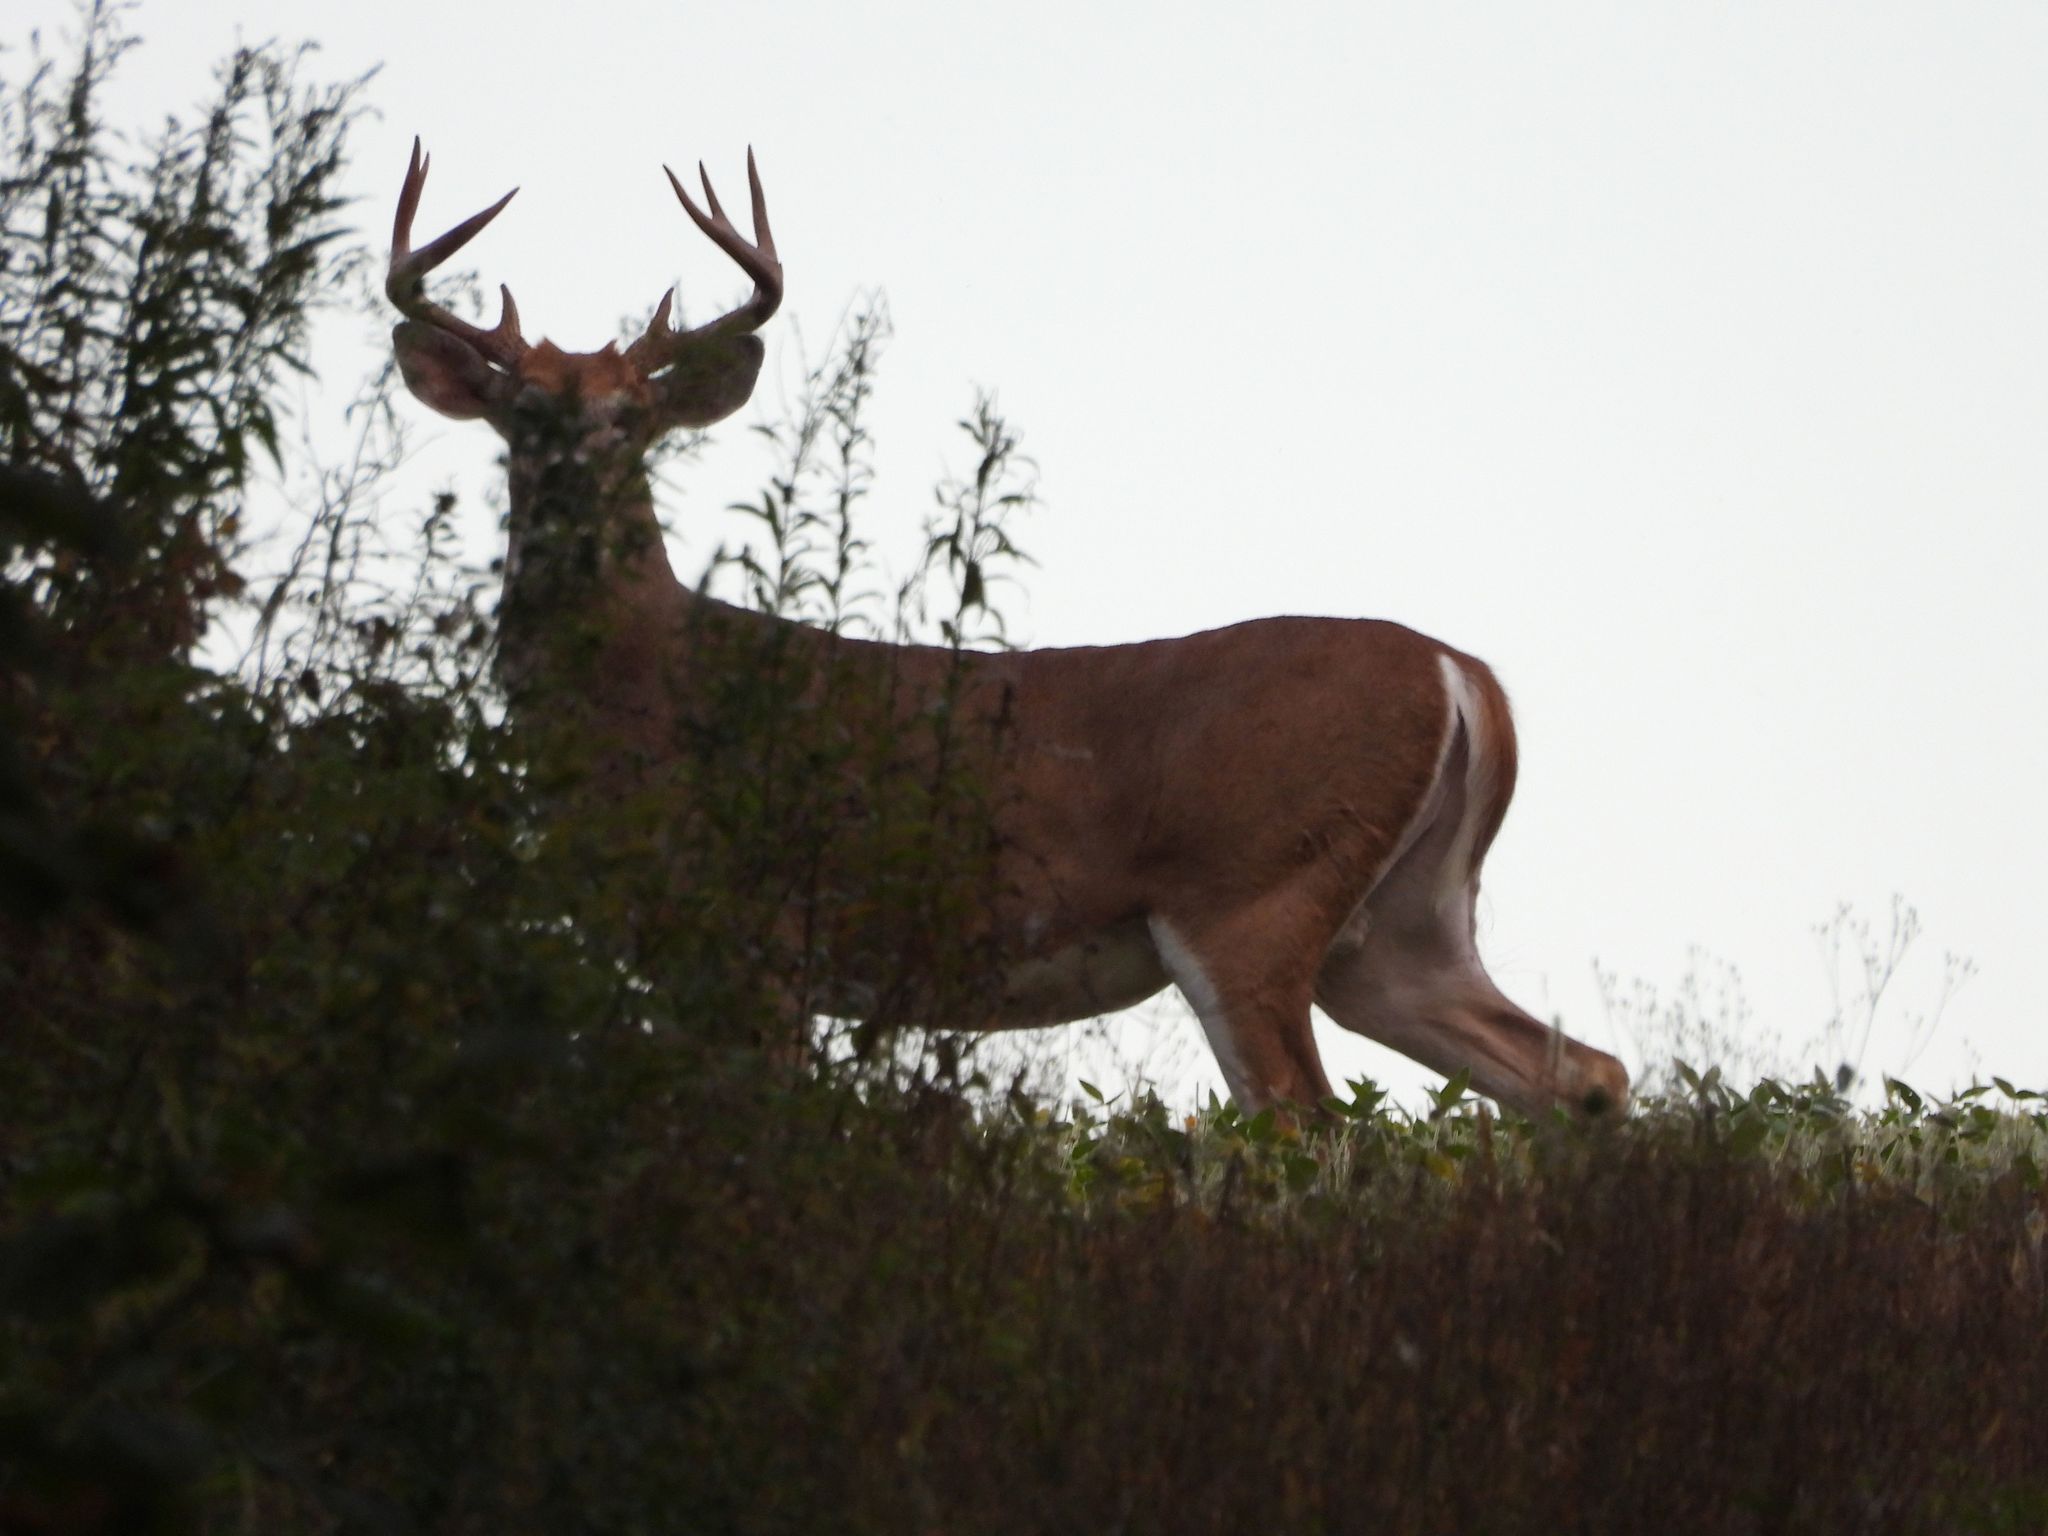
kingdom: Animalia
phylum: Chordata
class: Mammalia
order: Artiodactyla
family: Cervidae
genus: Odocoileus
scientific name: Odocoileus virginianus
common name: White-tailed deer
